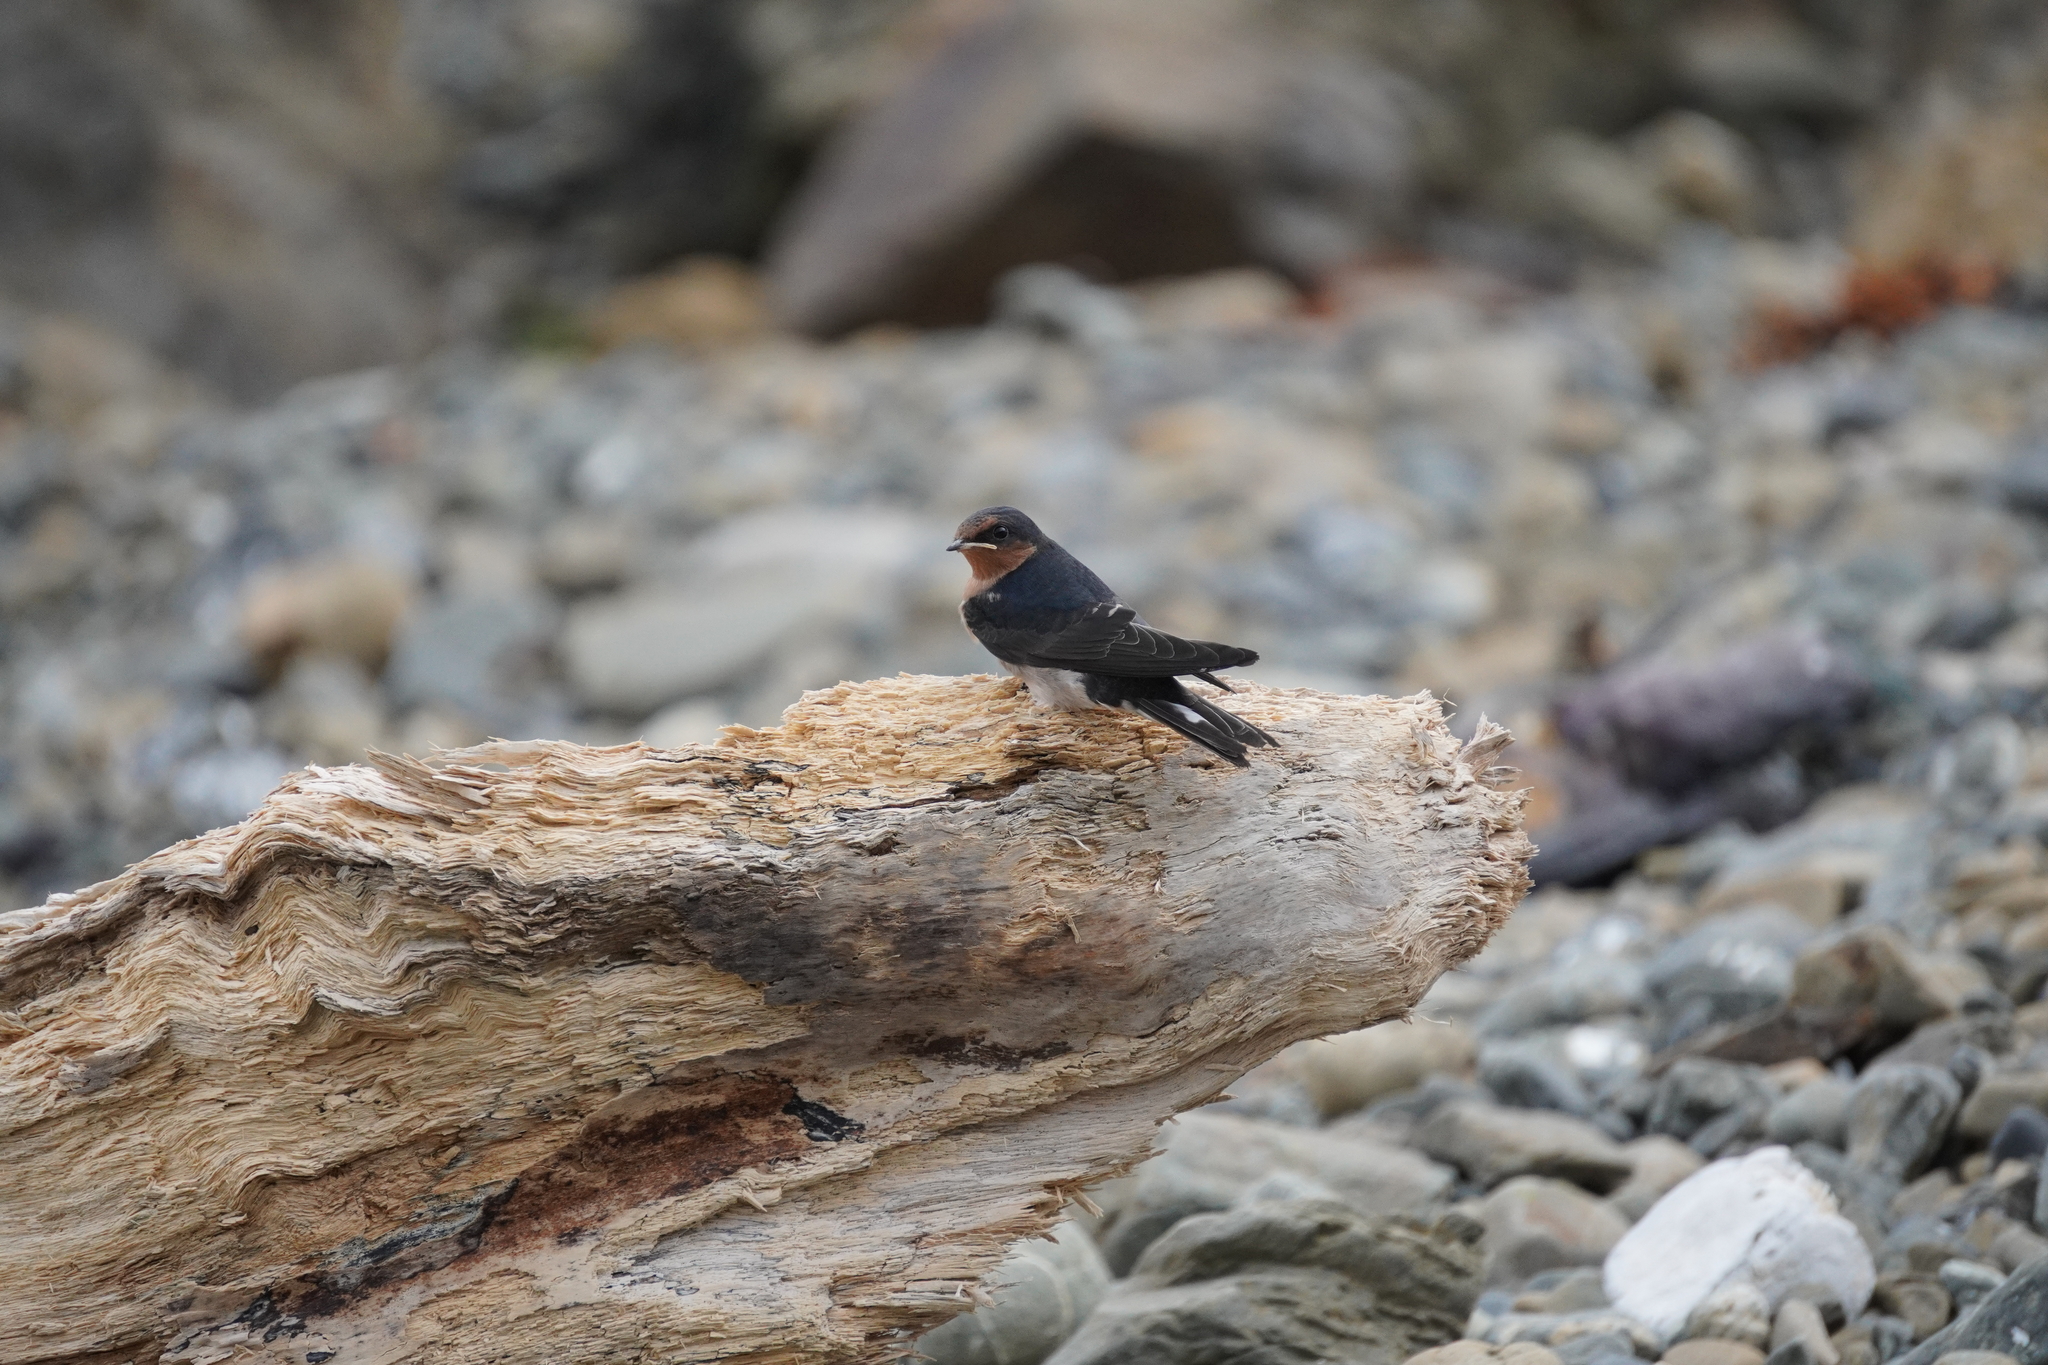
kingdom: Animalia
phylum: Chordata
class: Aves
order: Passeriformes
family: Hirundinidae
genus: Hirundo
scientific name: Hirundo neoxena
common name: Welcome swallow
